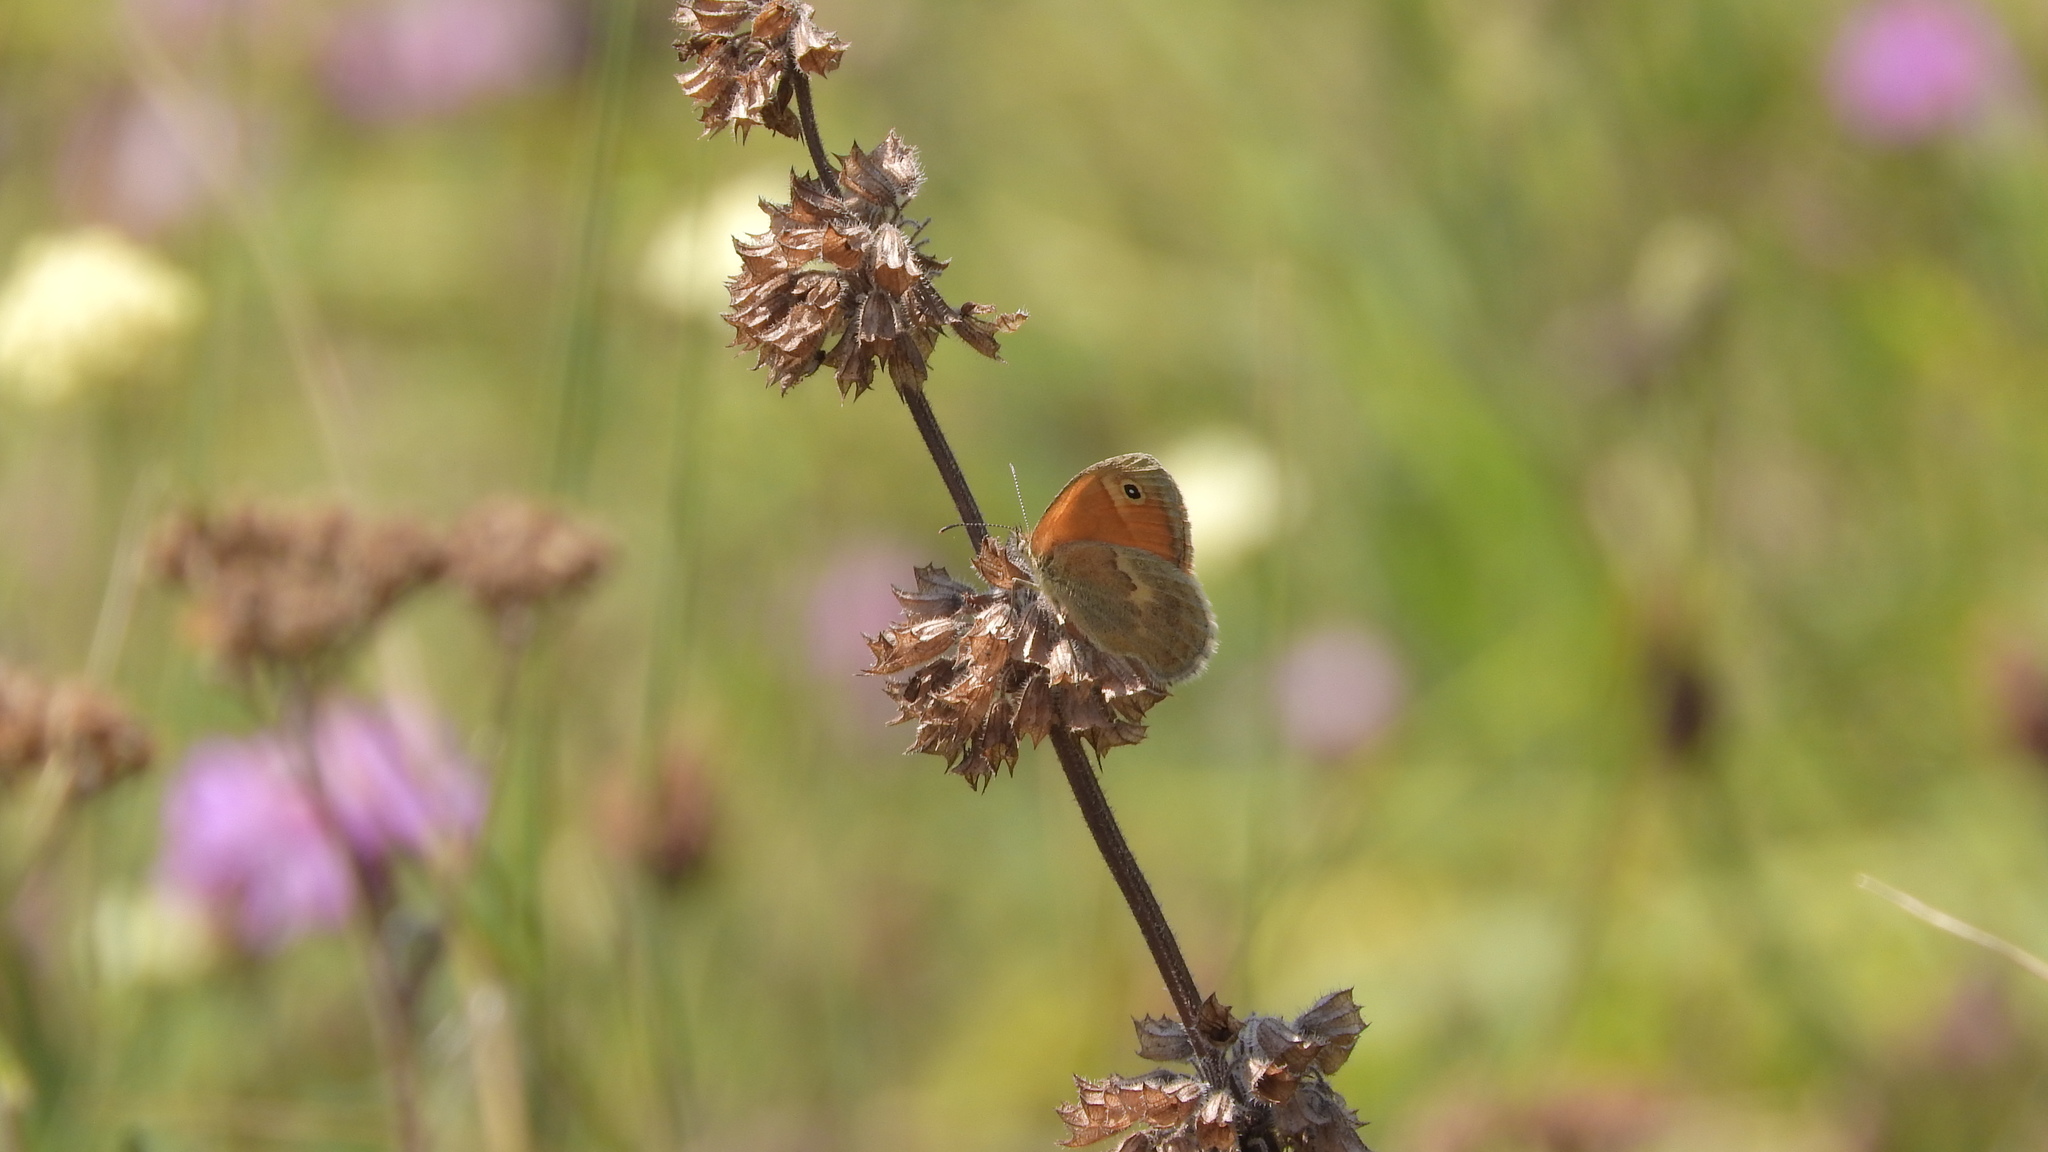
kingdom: Animalia
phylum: Arthropoda
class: Insecta
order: Lepidoptera
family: Nymphalidae
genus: Coenonympha
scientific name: Coenonympha pamphilus
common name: Small heath
